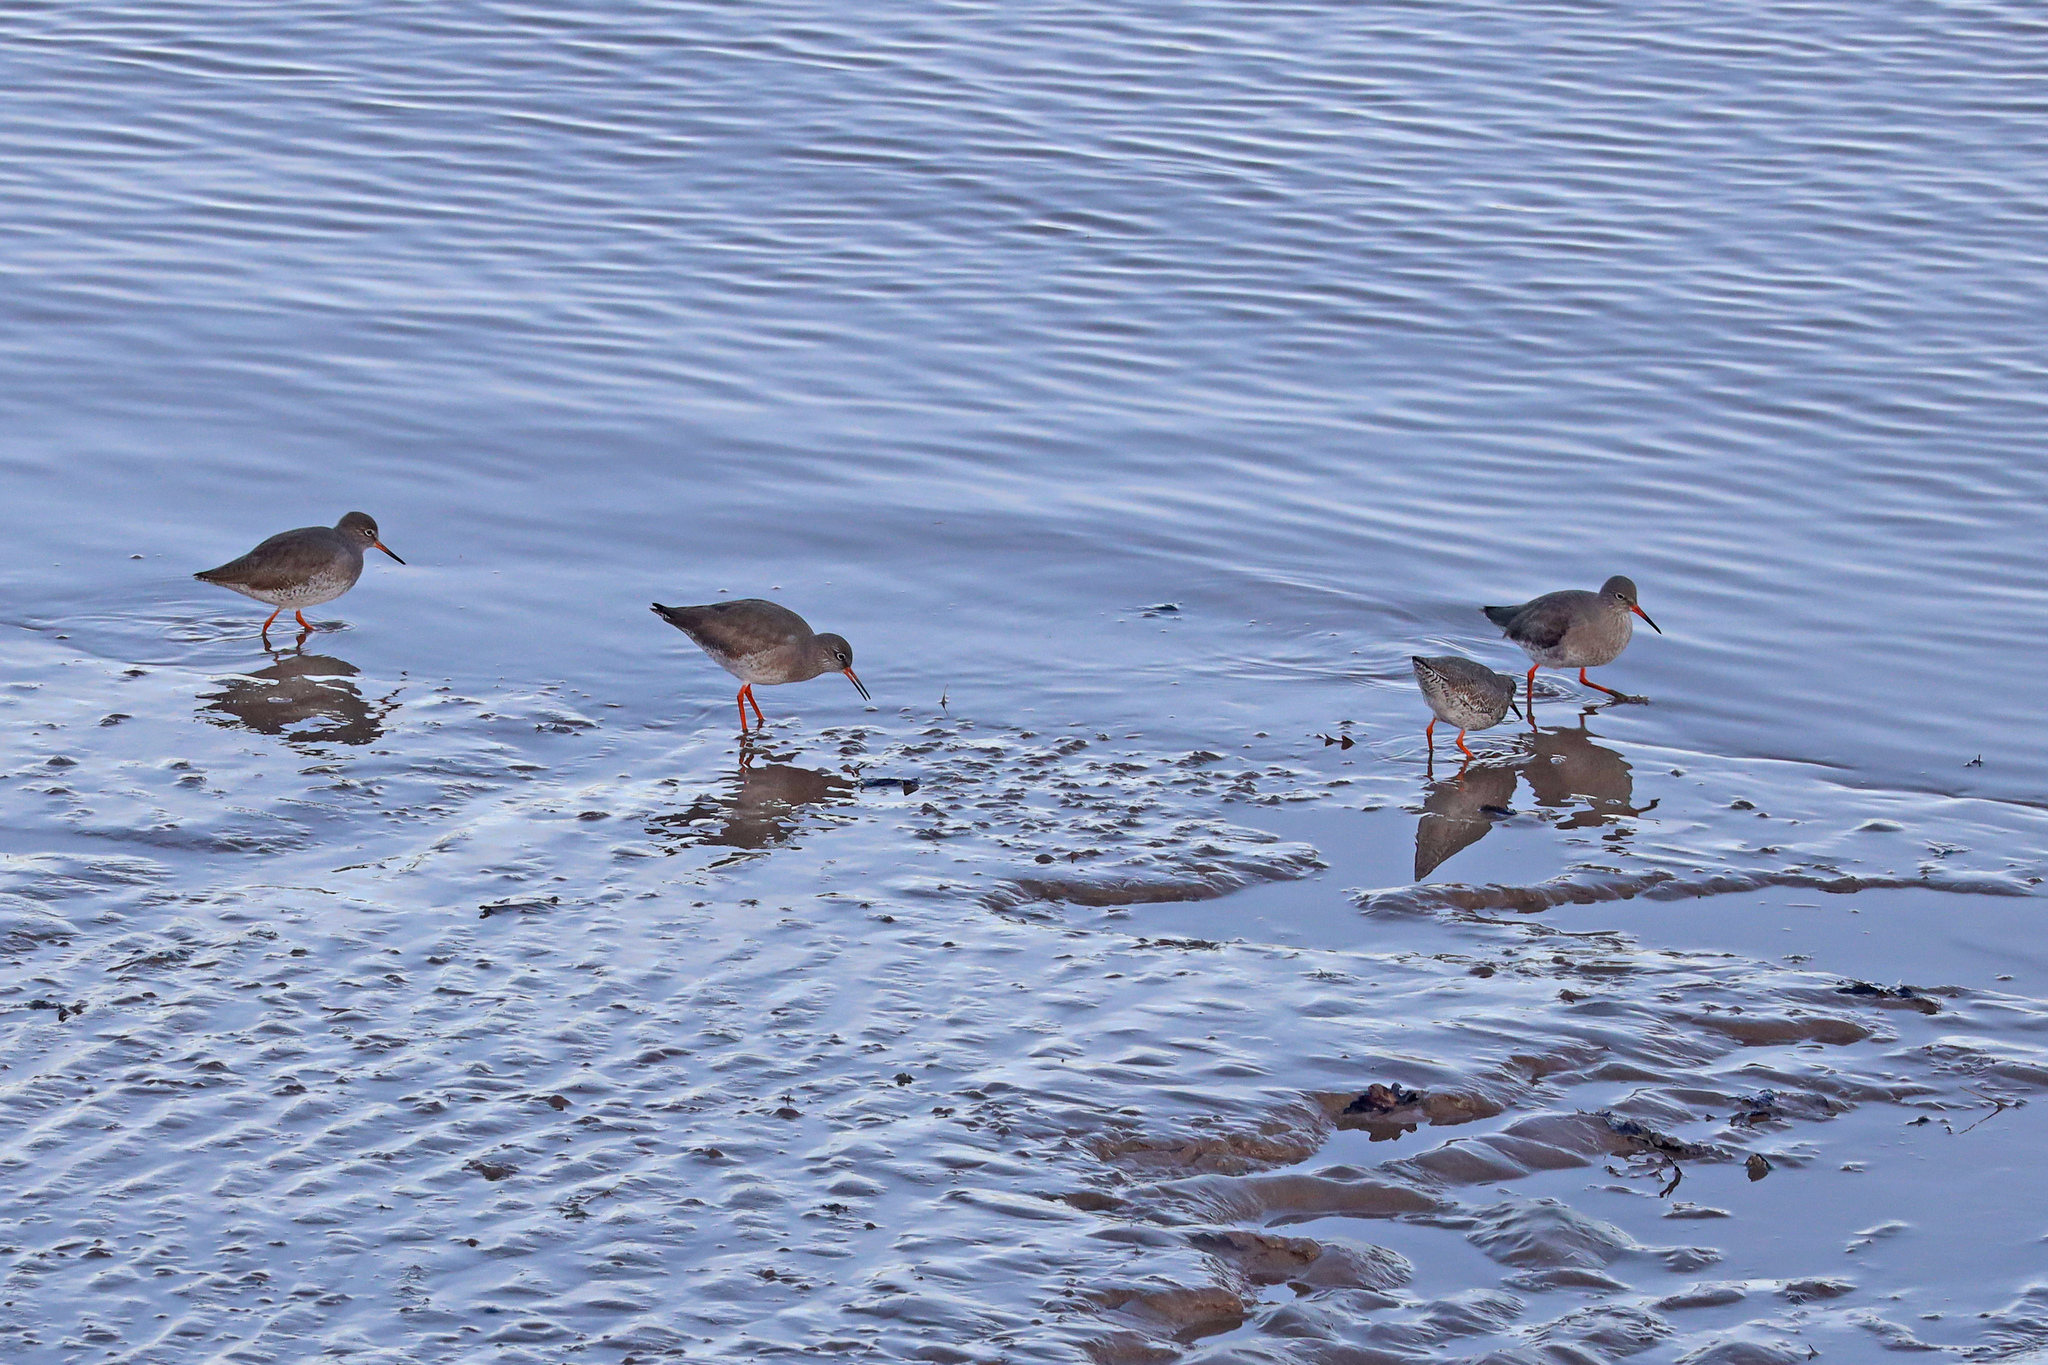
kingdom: Animalia
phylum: Chordata
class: Aves
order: Charadriiformes
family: Scolopacidae
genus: Tringa
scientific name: Tringa totanus
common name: Common redshank
